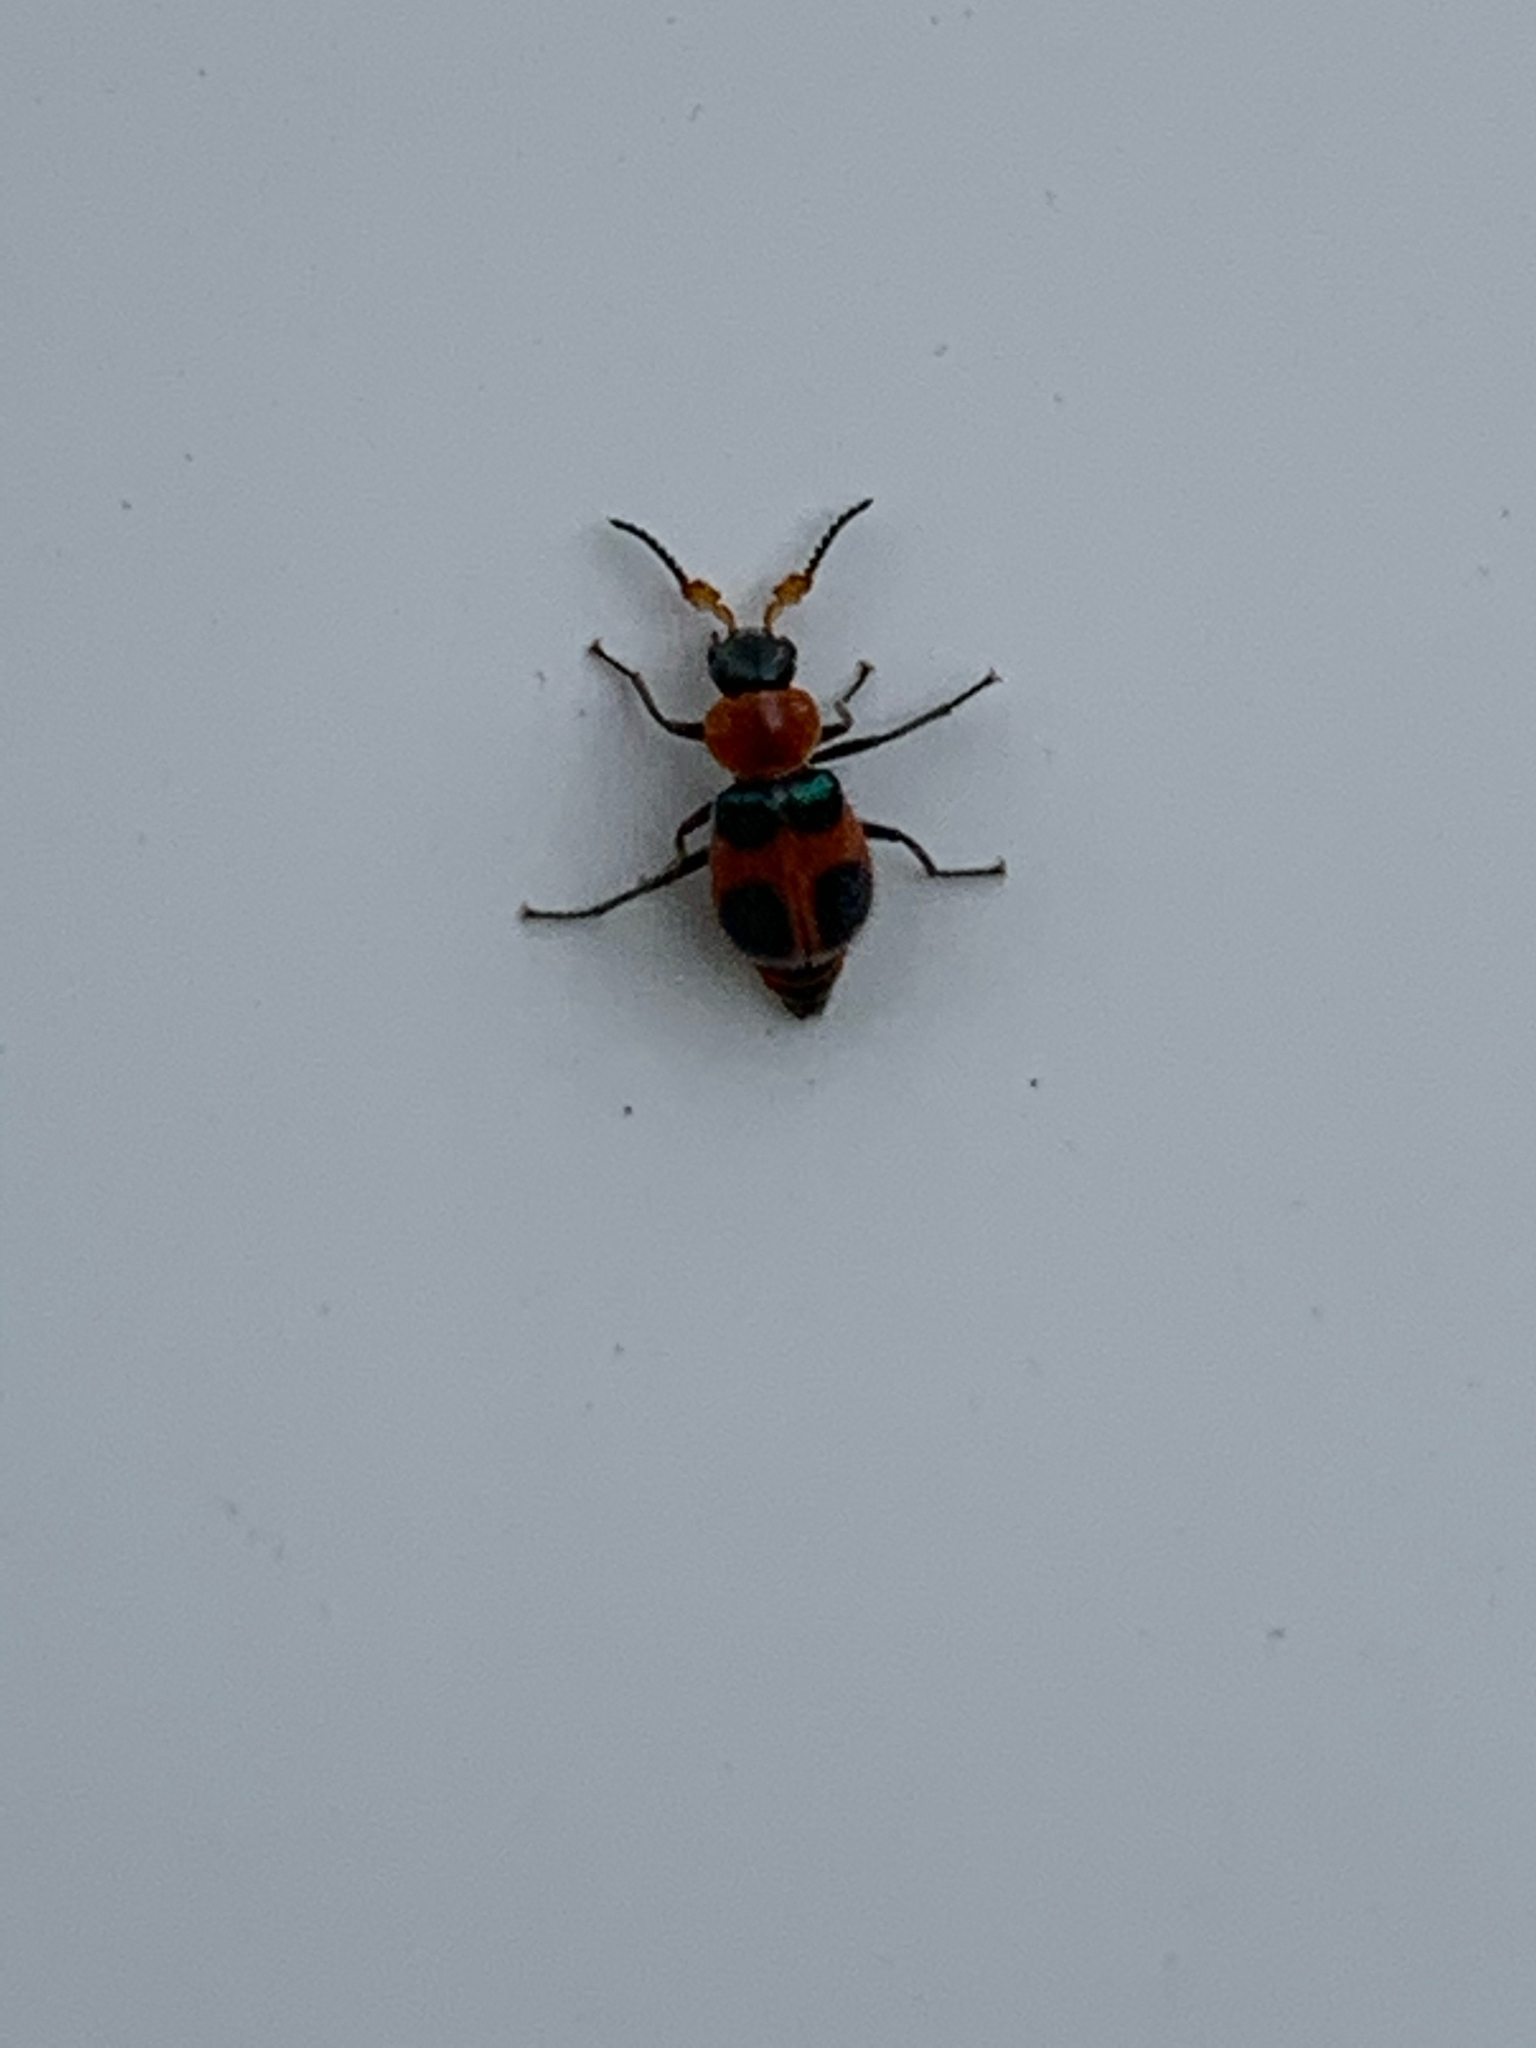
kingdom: Animalia
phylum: Arthropoda
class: Insecta
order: Coleoptera
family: Melyridae
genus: Collops
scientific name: Collops quadrimaculatus
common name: Four-spotted collops
